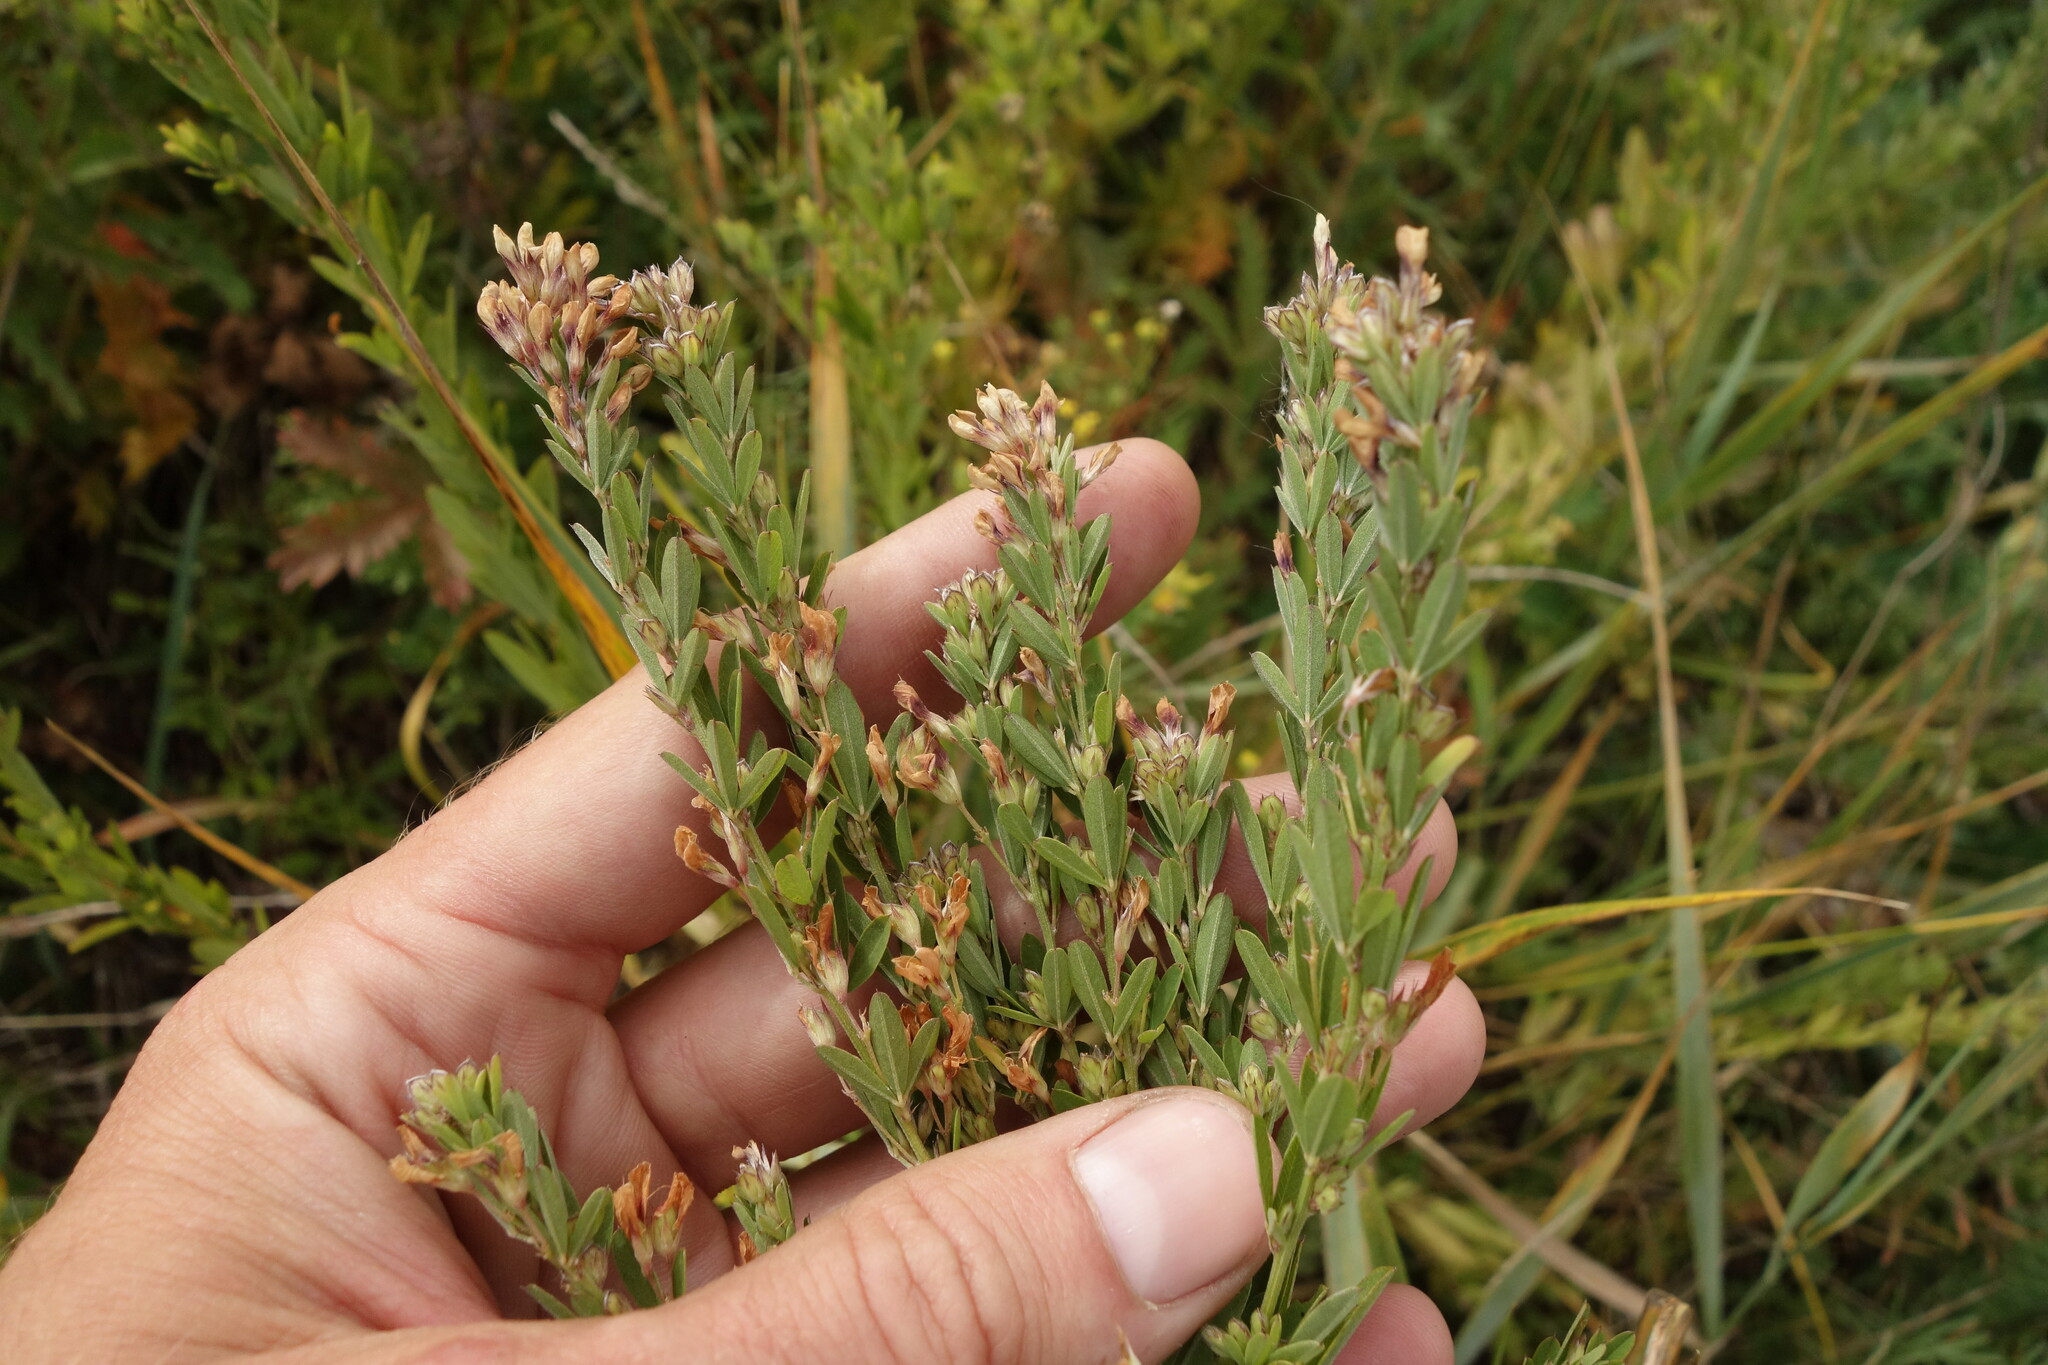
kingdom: Plantae
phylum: Tracheophyta
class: Magnoliopsida
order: Fabales
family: Fabaceae
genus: Lespedeza
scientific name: Lespedeza juncea
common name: Siberian lespedeza
